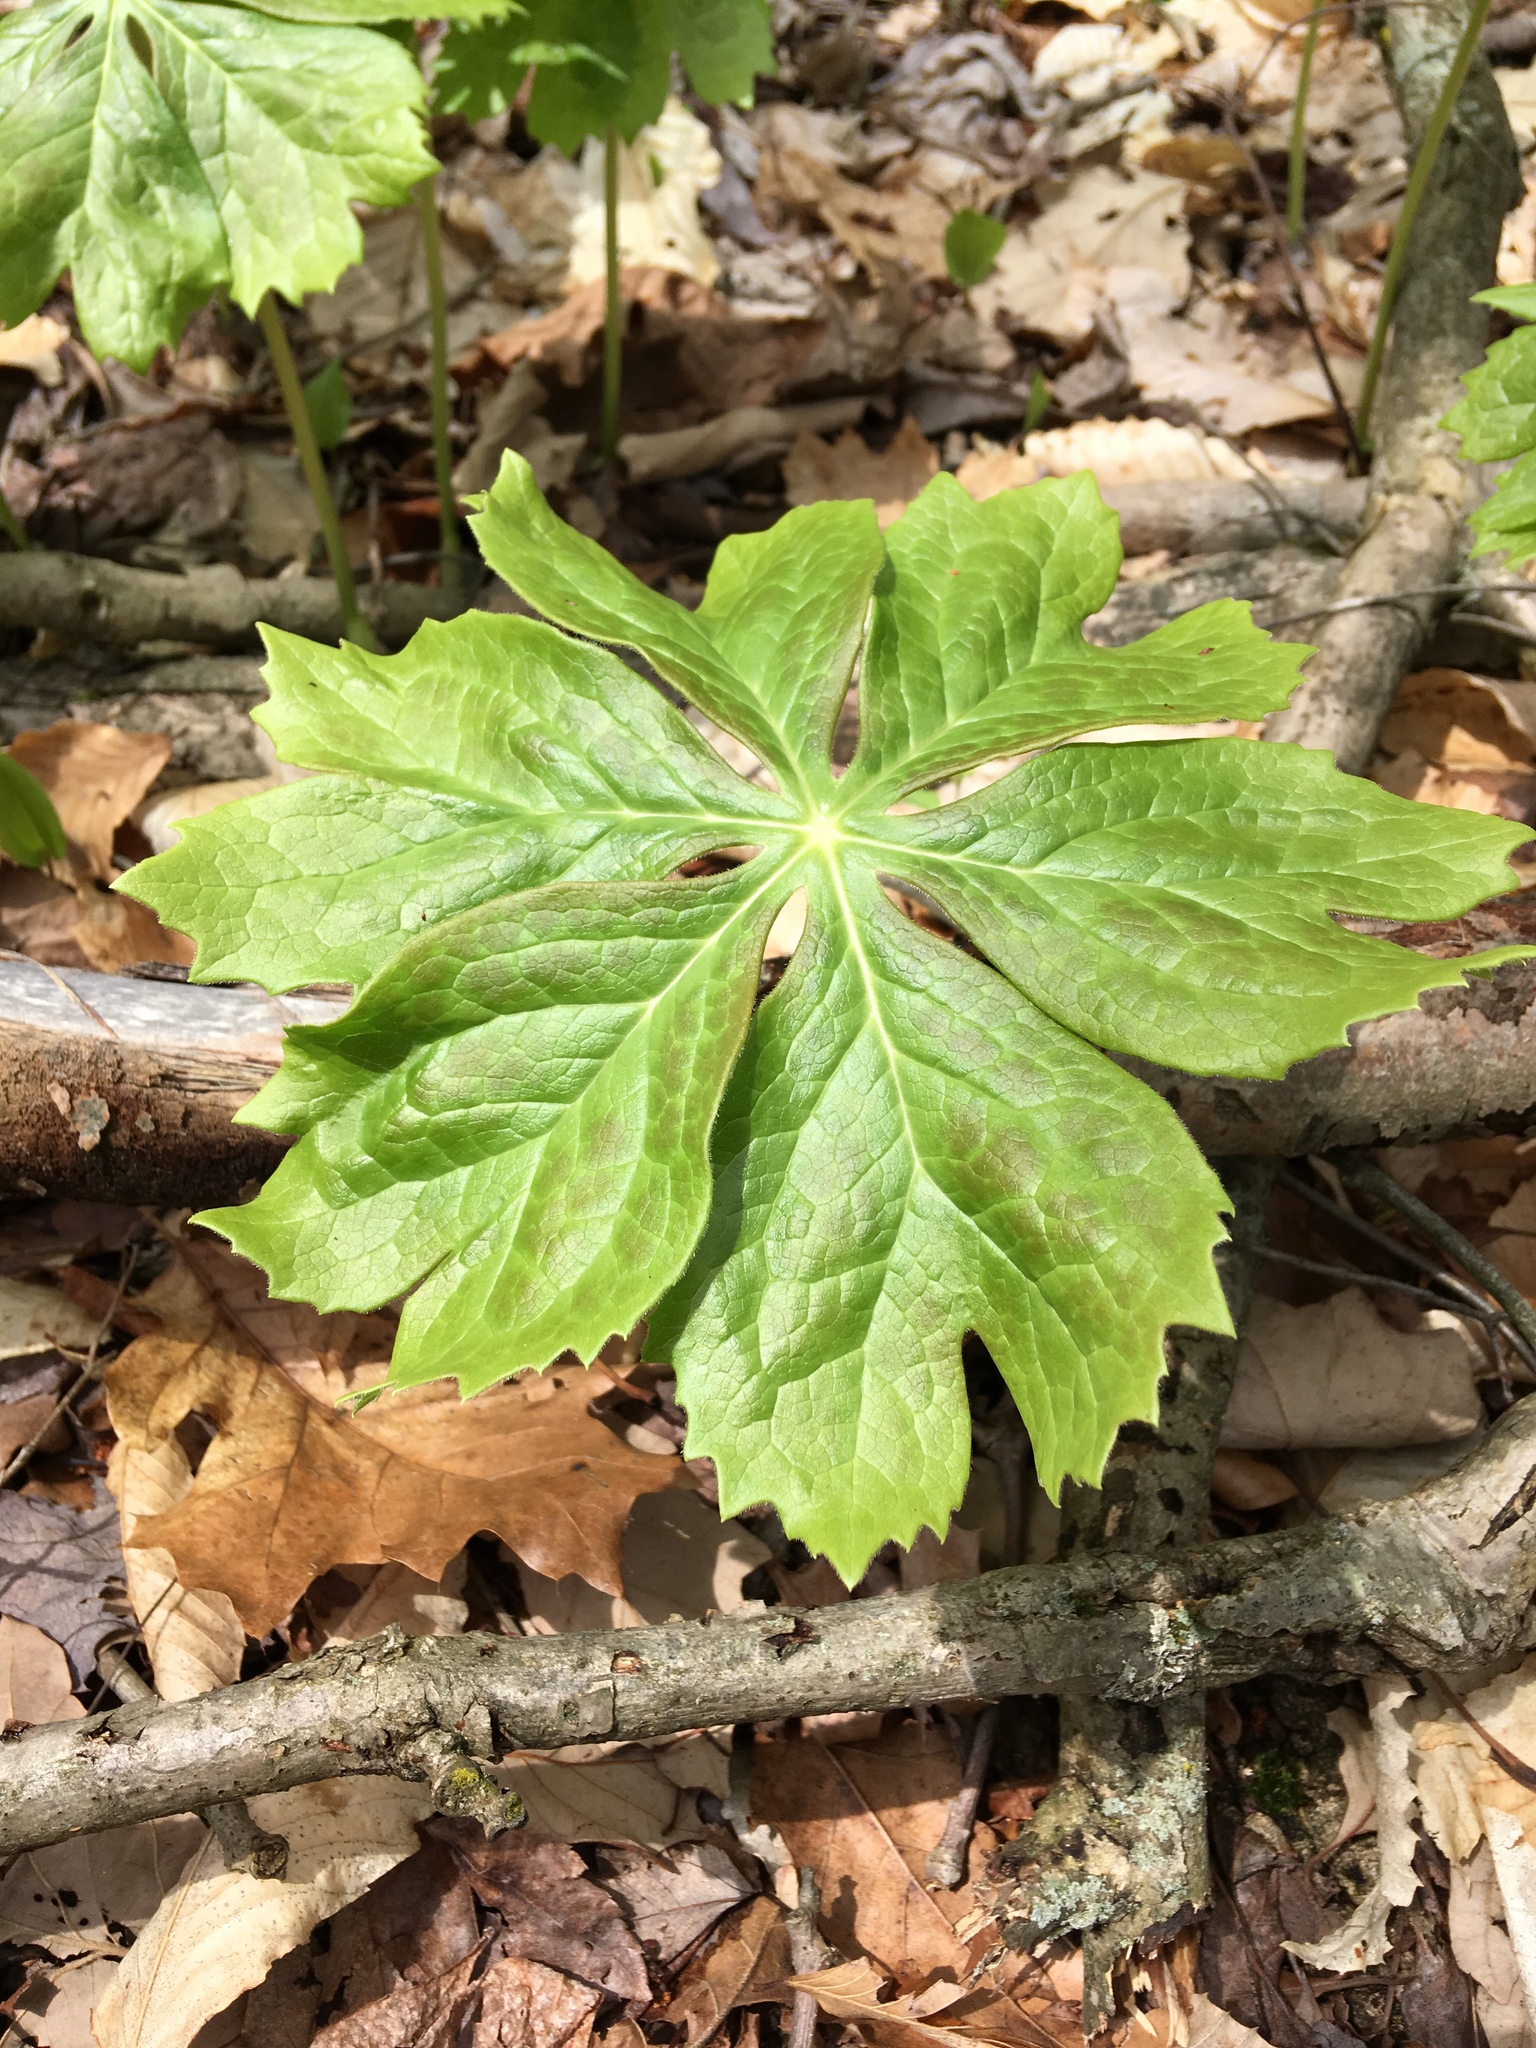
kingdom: Plantae
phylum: Tracheophyta
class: Magnoliopsida
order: Ranunculales
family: Berberidaceae
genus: Podophyllum
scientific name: Podophyllum peltatum
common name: Wild mandrake
